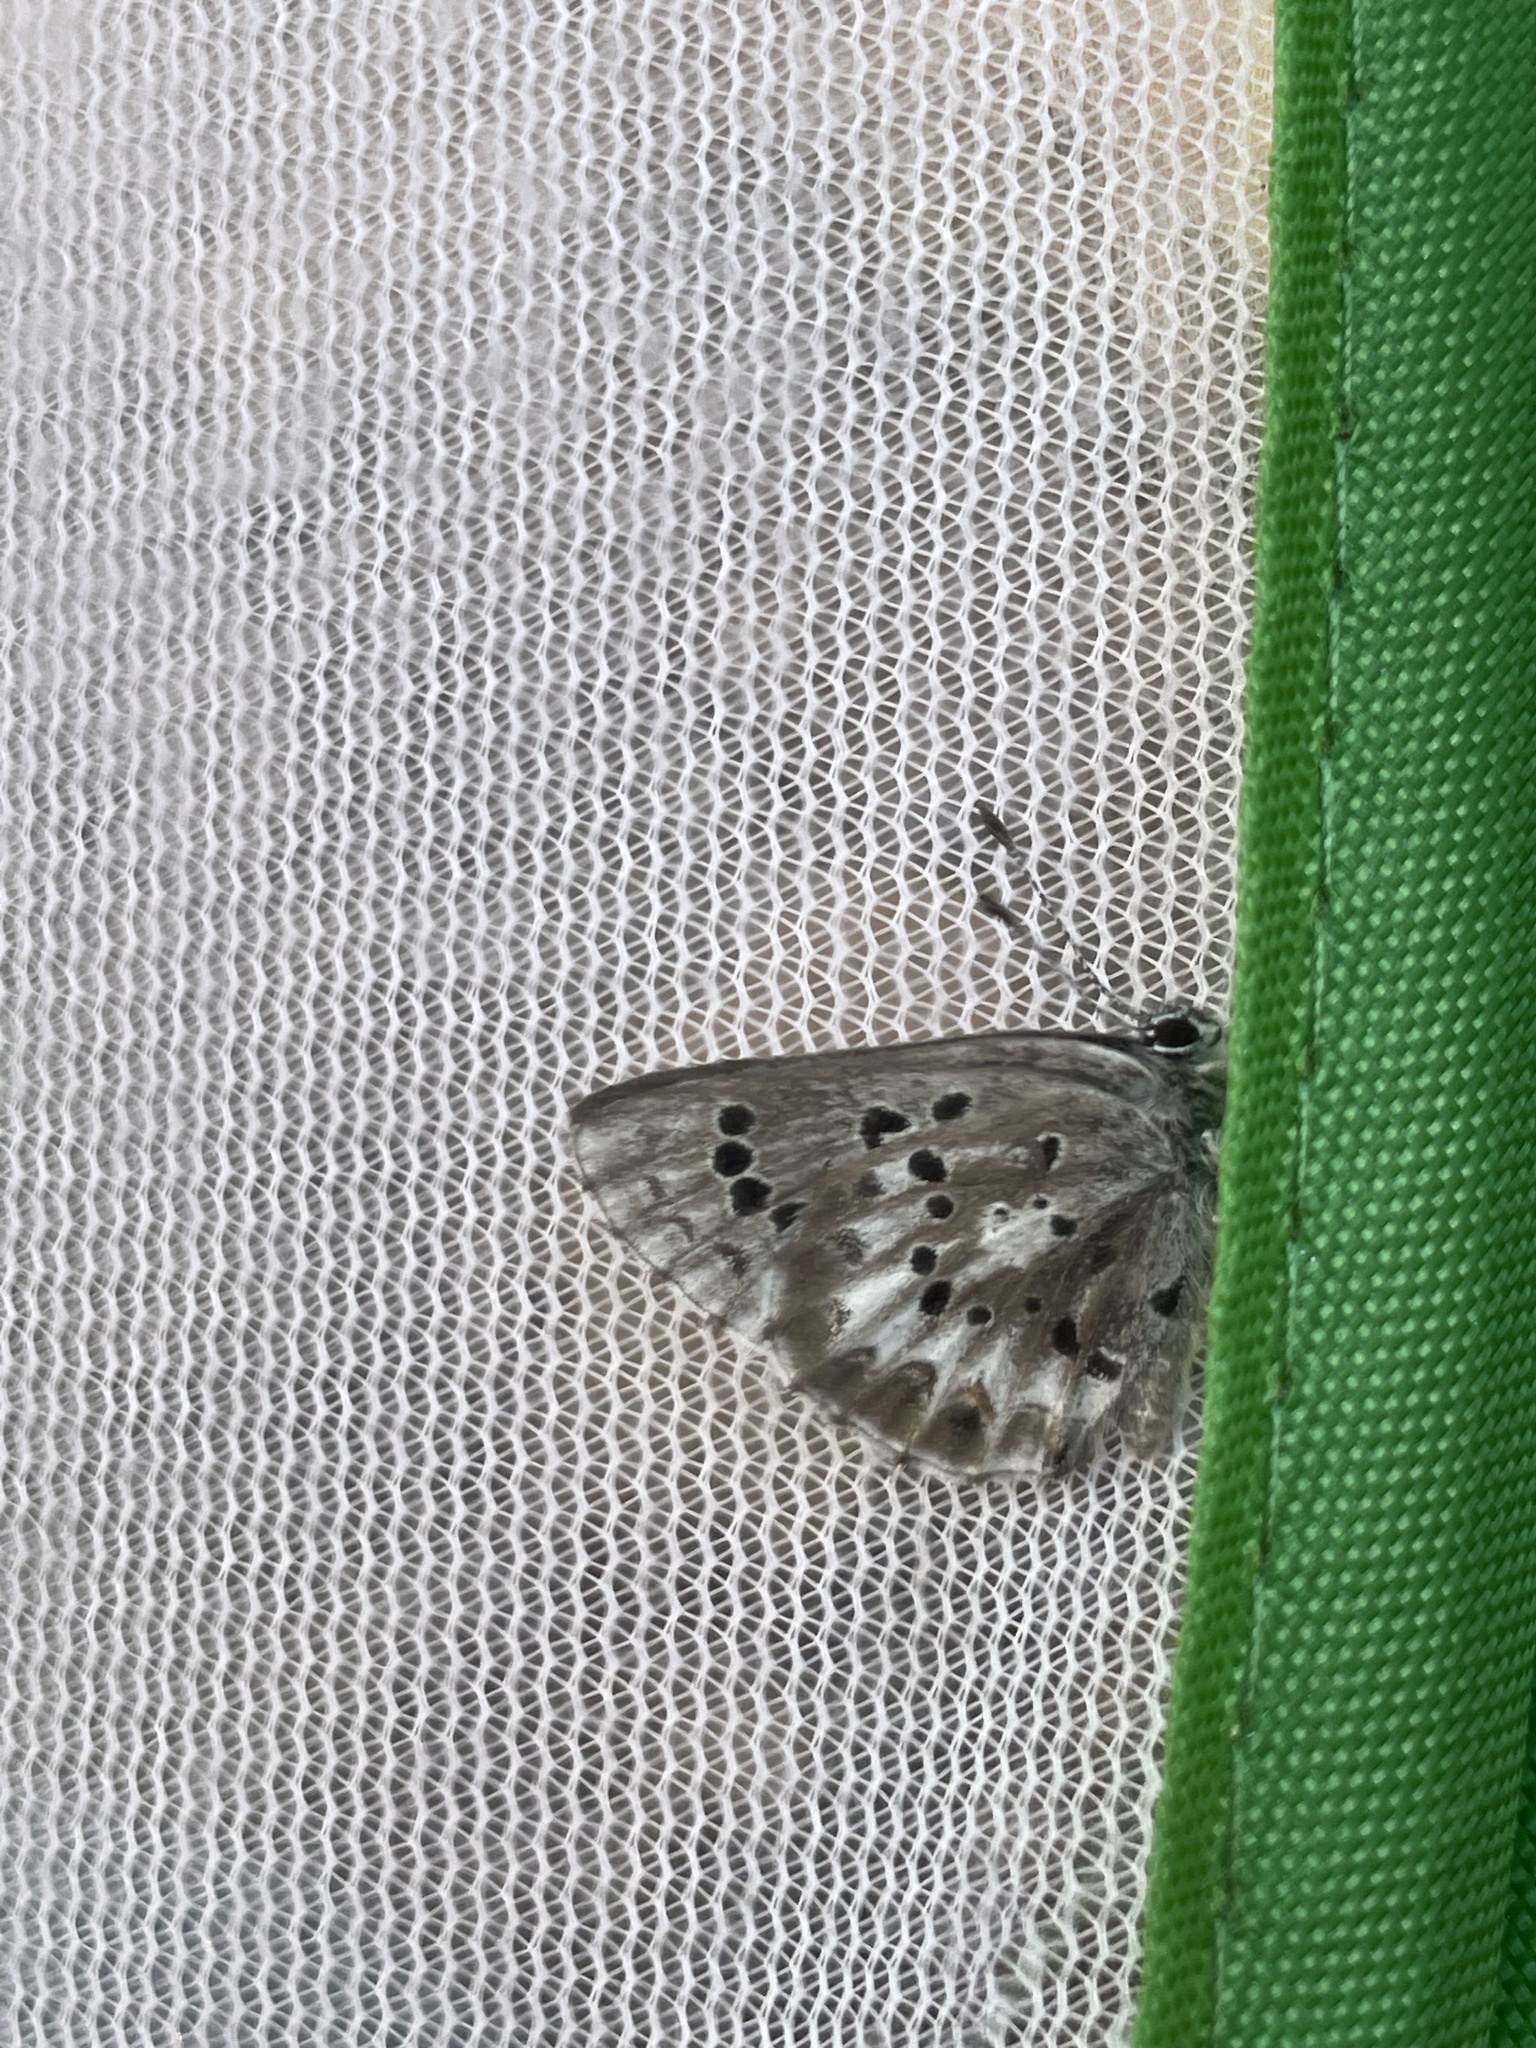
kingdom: Animalia
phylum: Arthropoda
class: Insecta
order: Lepidoptera
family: Lycaenidae
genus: Glaucopsyche
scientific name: Glaucopsyche piasus
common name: Arrowhead blue
